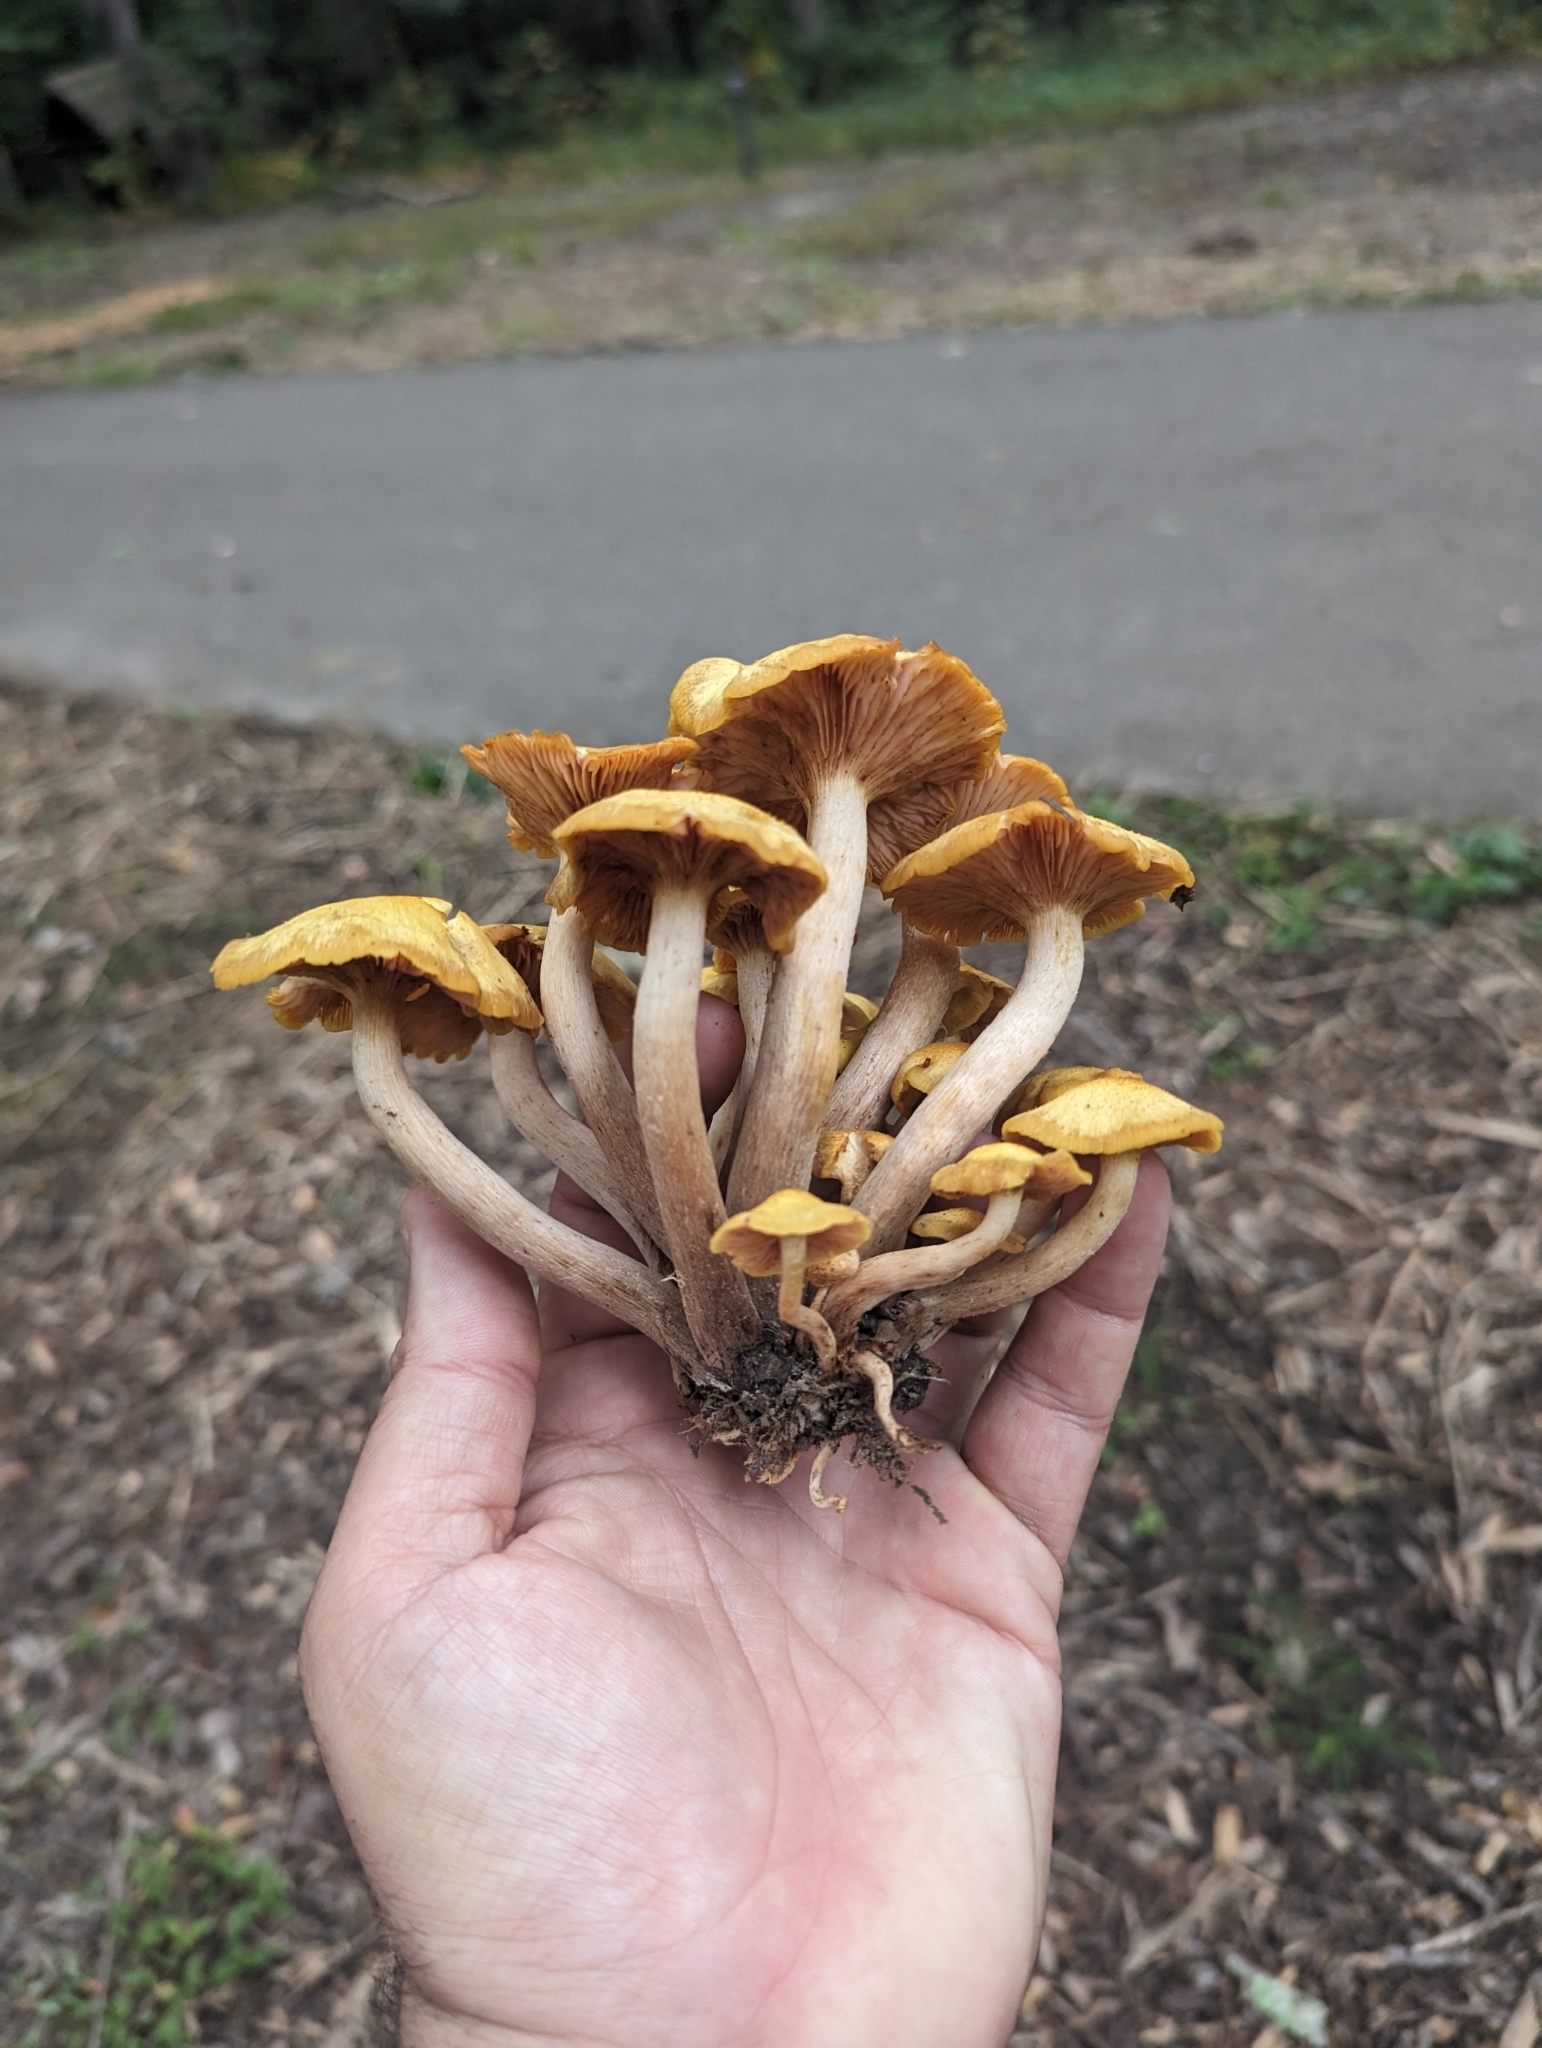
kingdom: Fungi
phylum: Basidiomycota
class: Agaricomycetes
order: Agaricales
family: Physalacriaceae
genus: Desarmillaria
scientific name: Desarmillaria caespitosa
